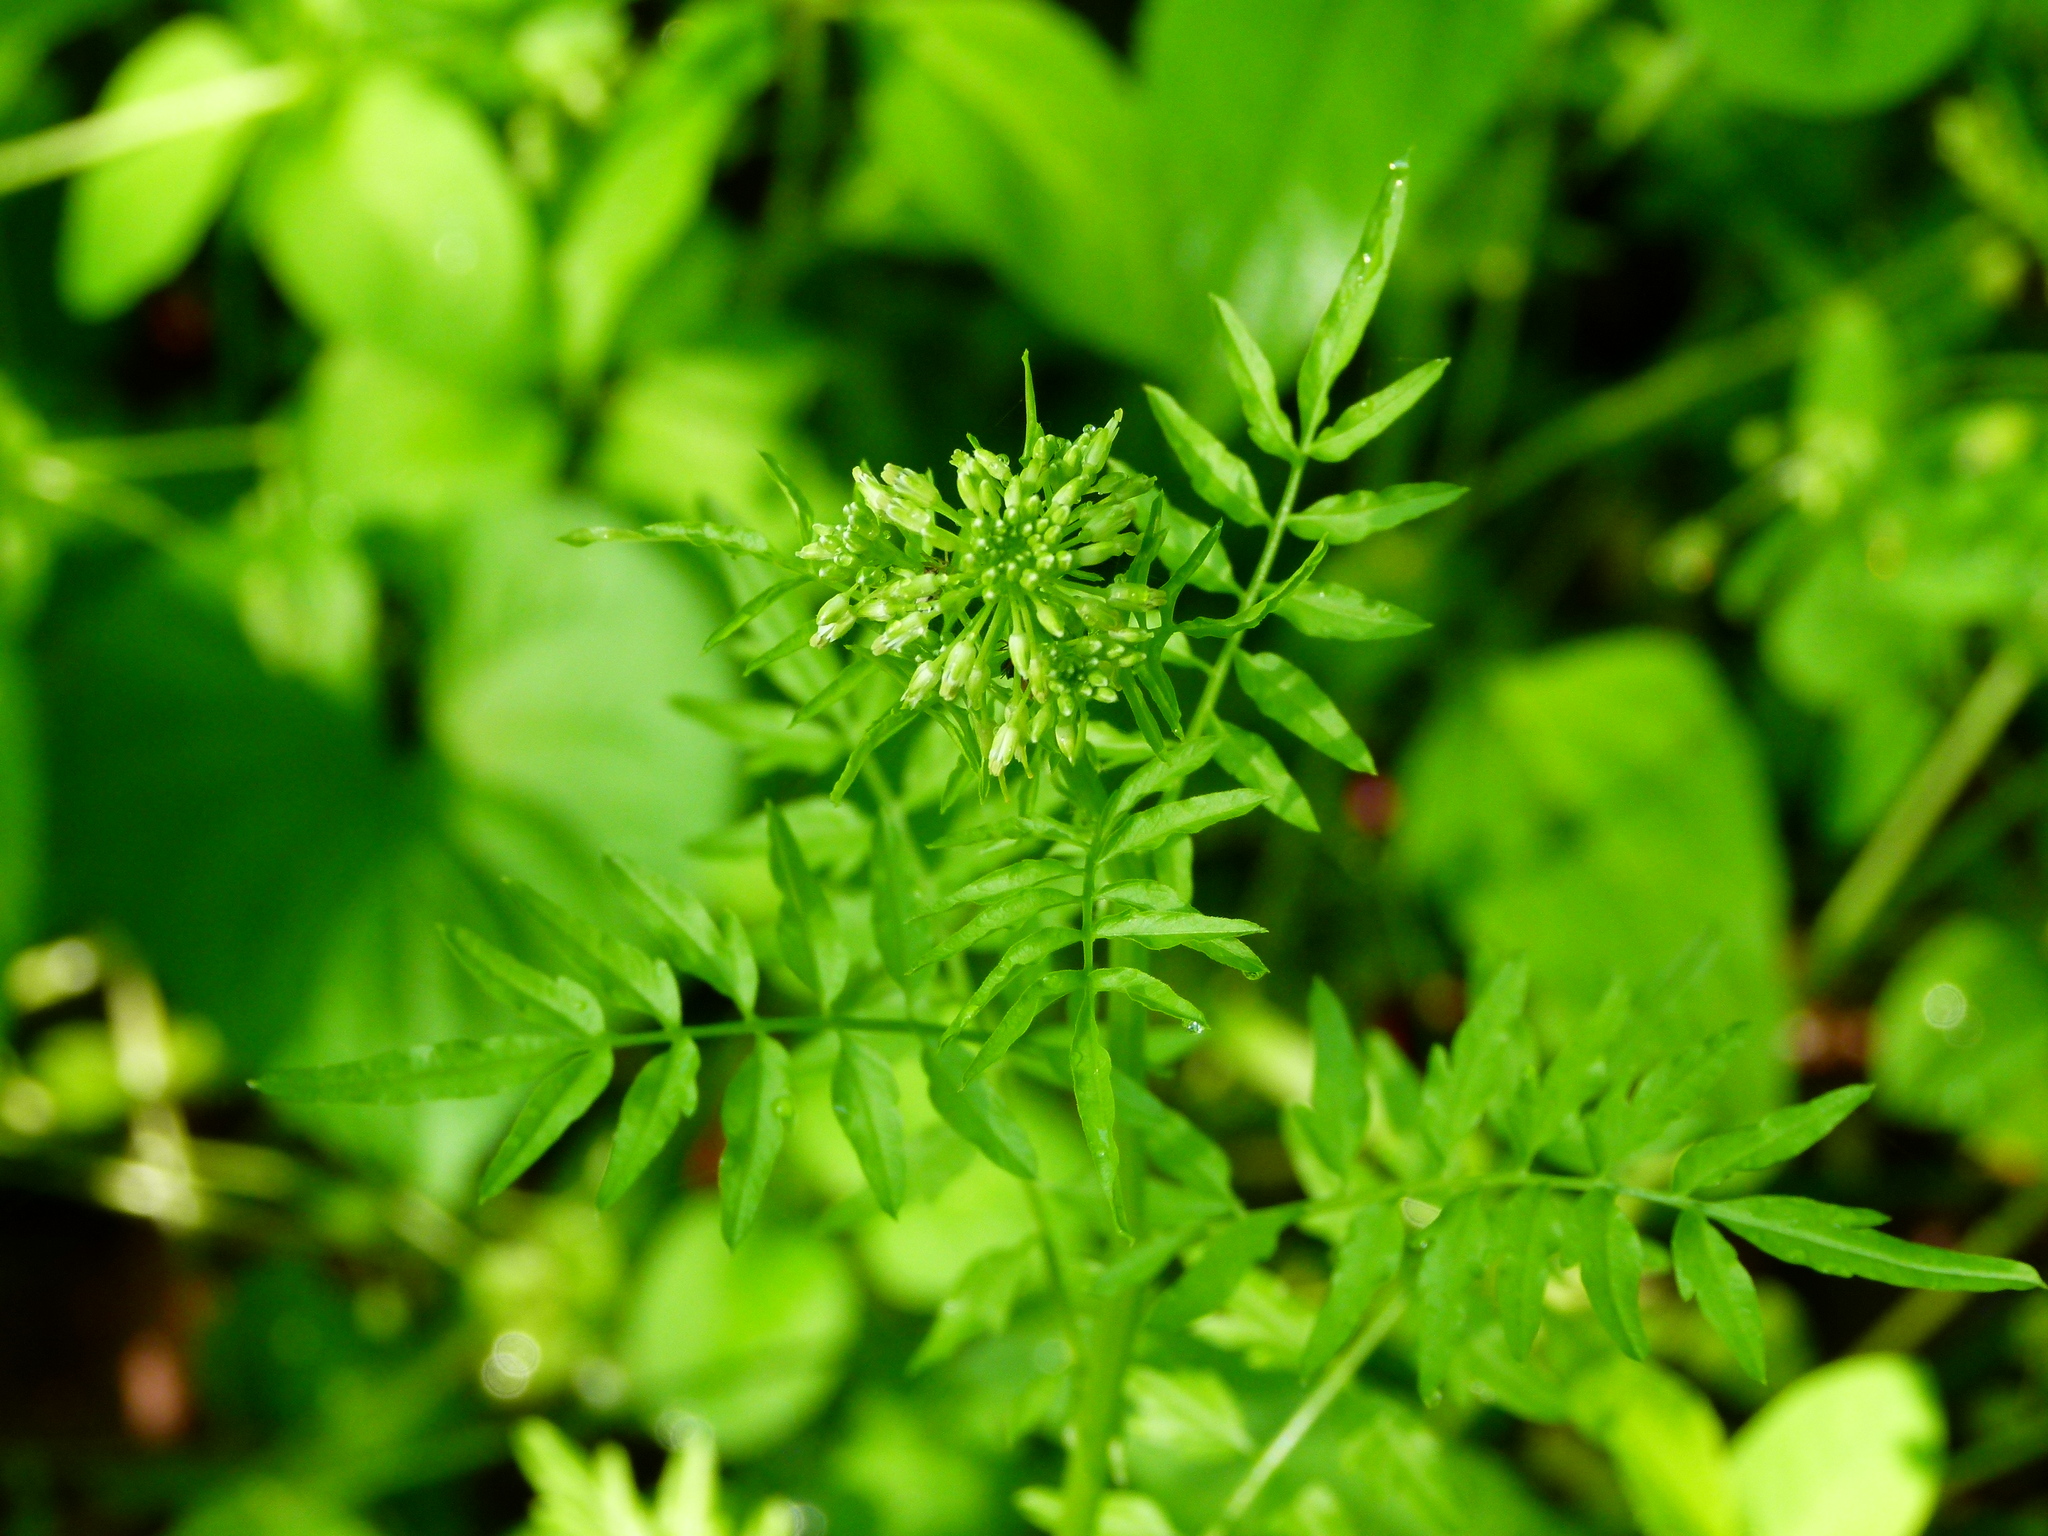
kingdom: Plantae
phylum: Tracheophyta
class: Magnoliopsida
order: Brassicales
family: Brassicaceae
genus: Cardamine
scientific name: Cardamine impatiens
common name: Narrow-leaved bitter-cress
